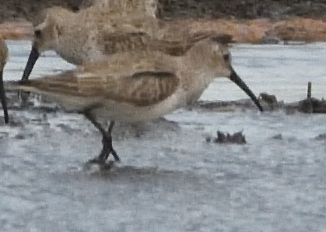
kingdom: Animalia
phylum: Chordata
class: Aves
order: Charadriiformes
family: Scolopacidae
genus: Calidris
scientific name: Calidris alpina
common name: Dunlin
